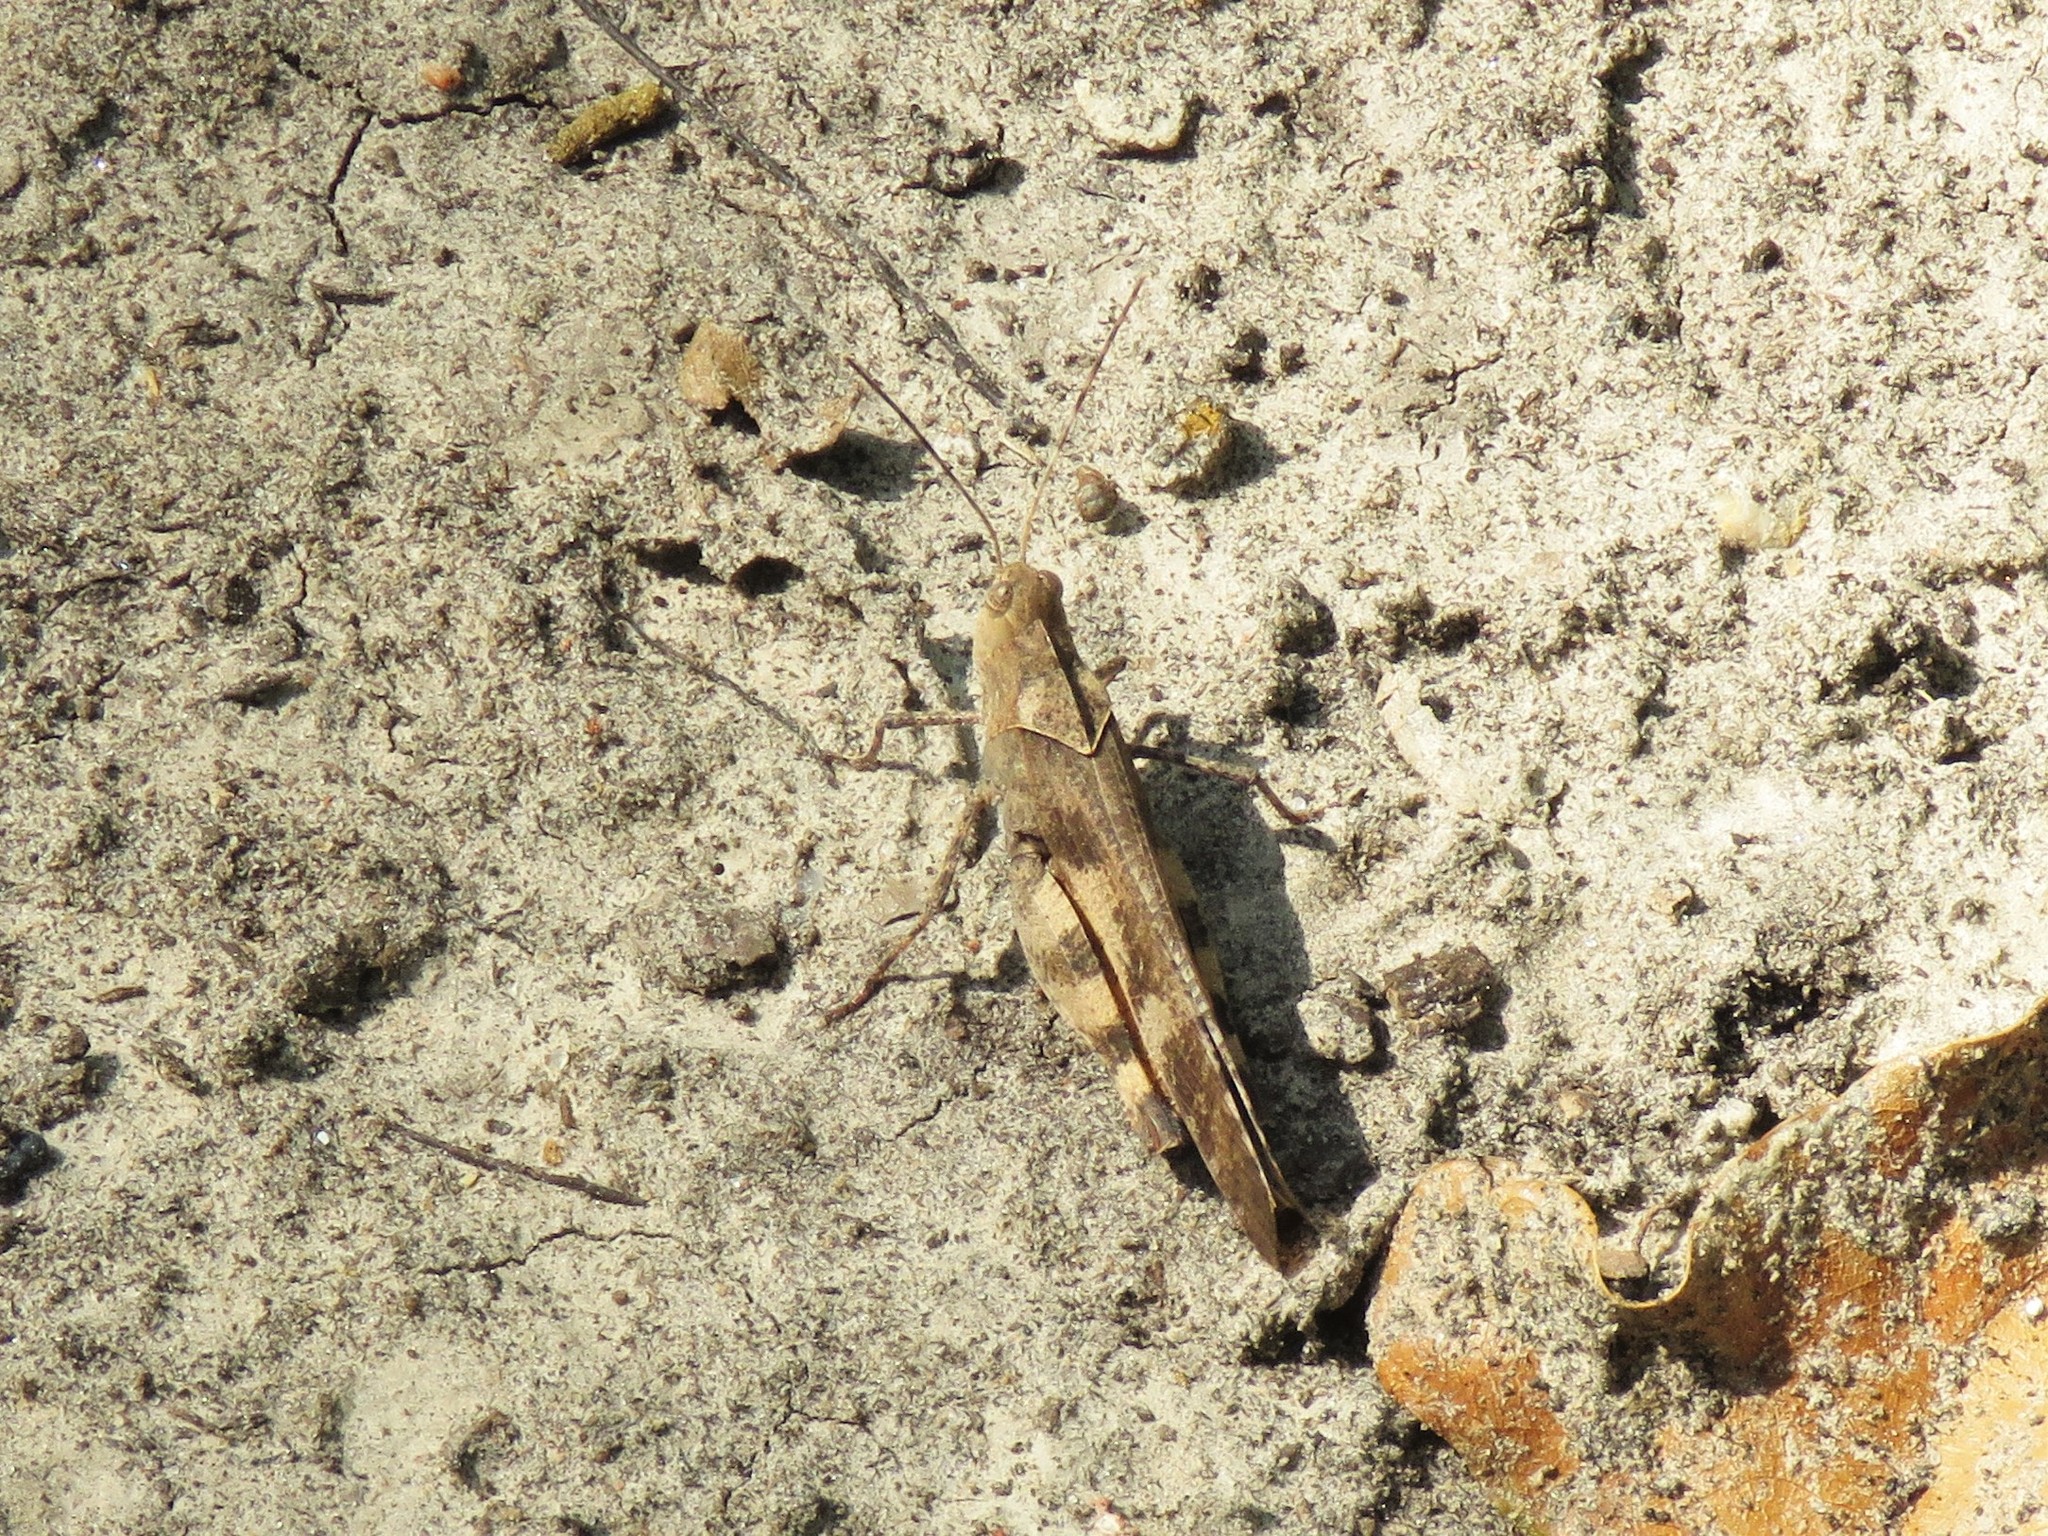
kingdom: Animalia
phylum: Arthropoda
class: Insecta
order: Orthoptera
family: Acrididae
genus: Spharagemon
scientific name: Spharagemon bolli
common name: Boll's grasshopper
